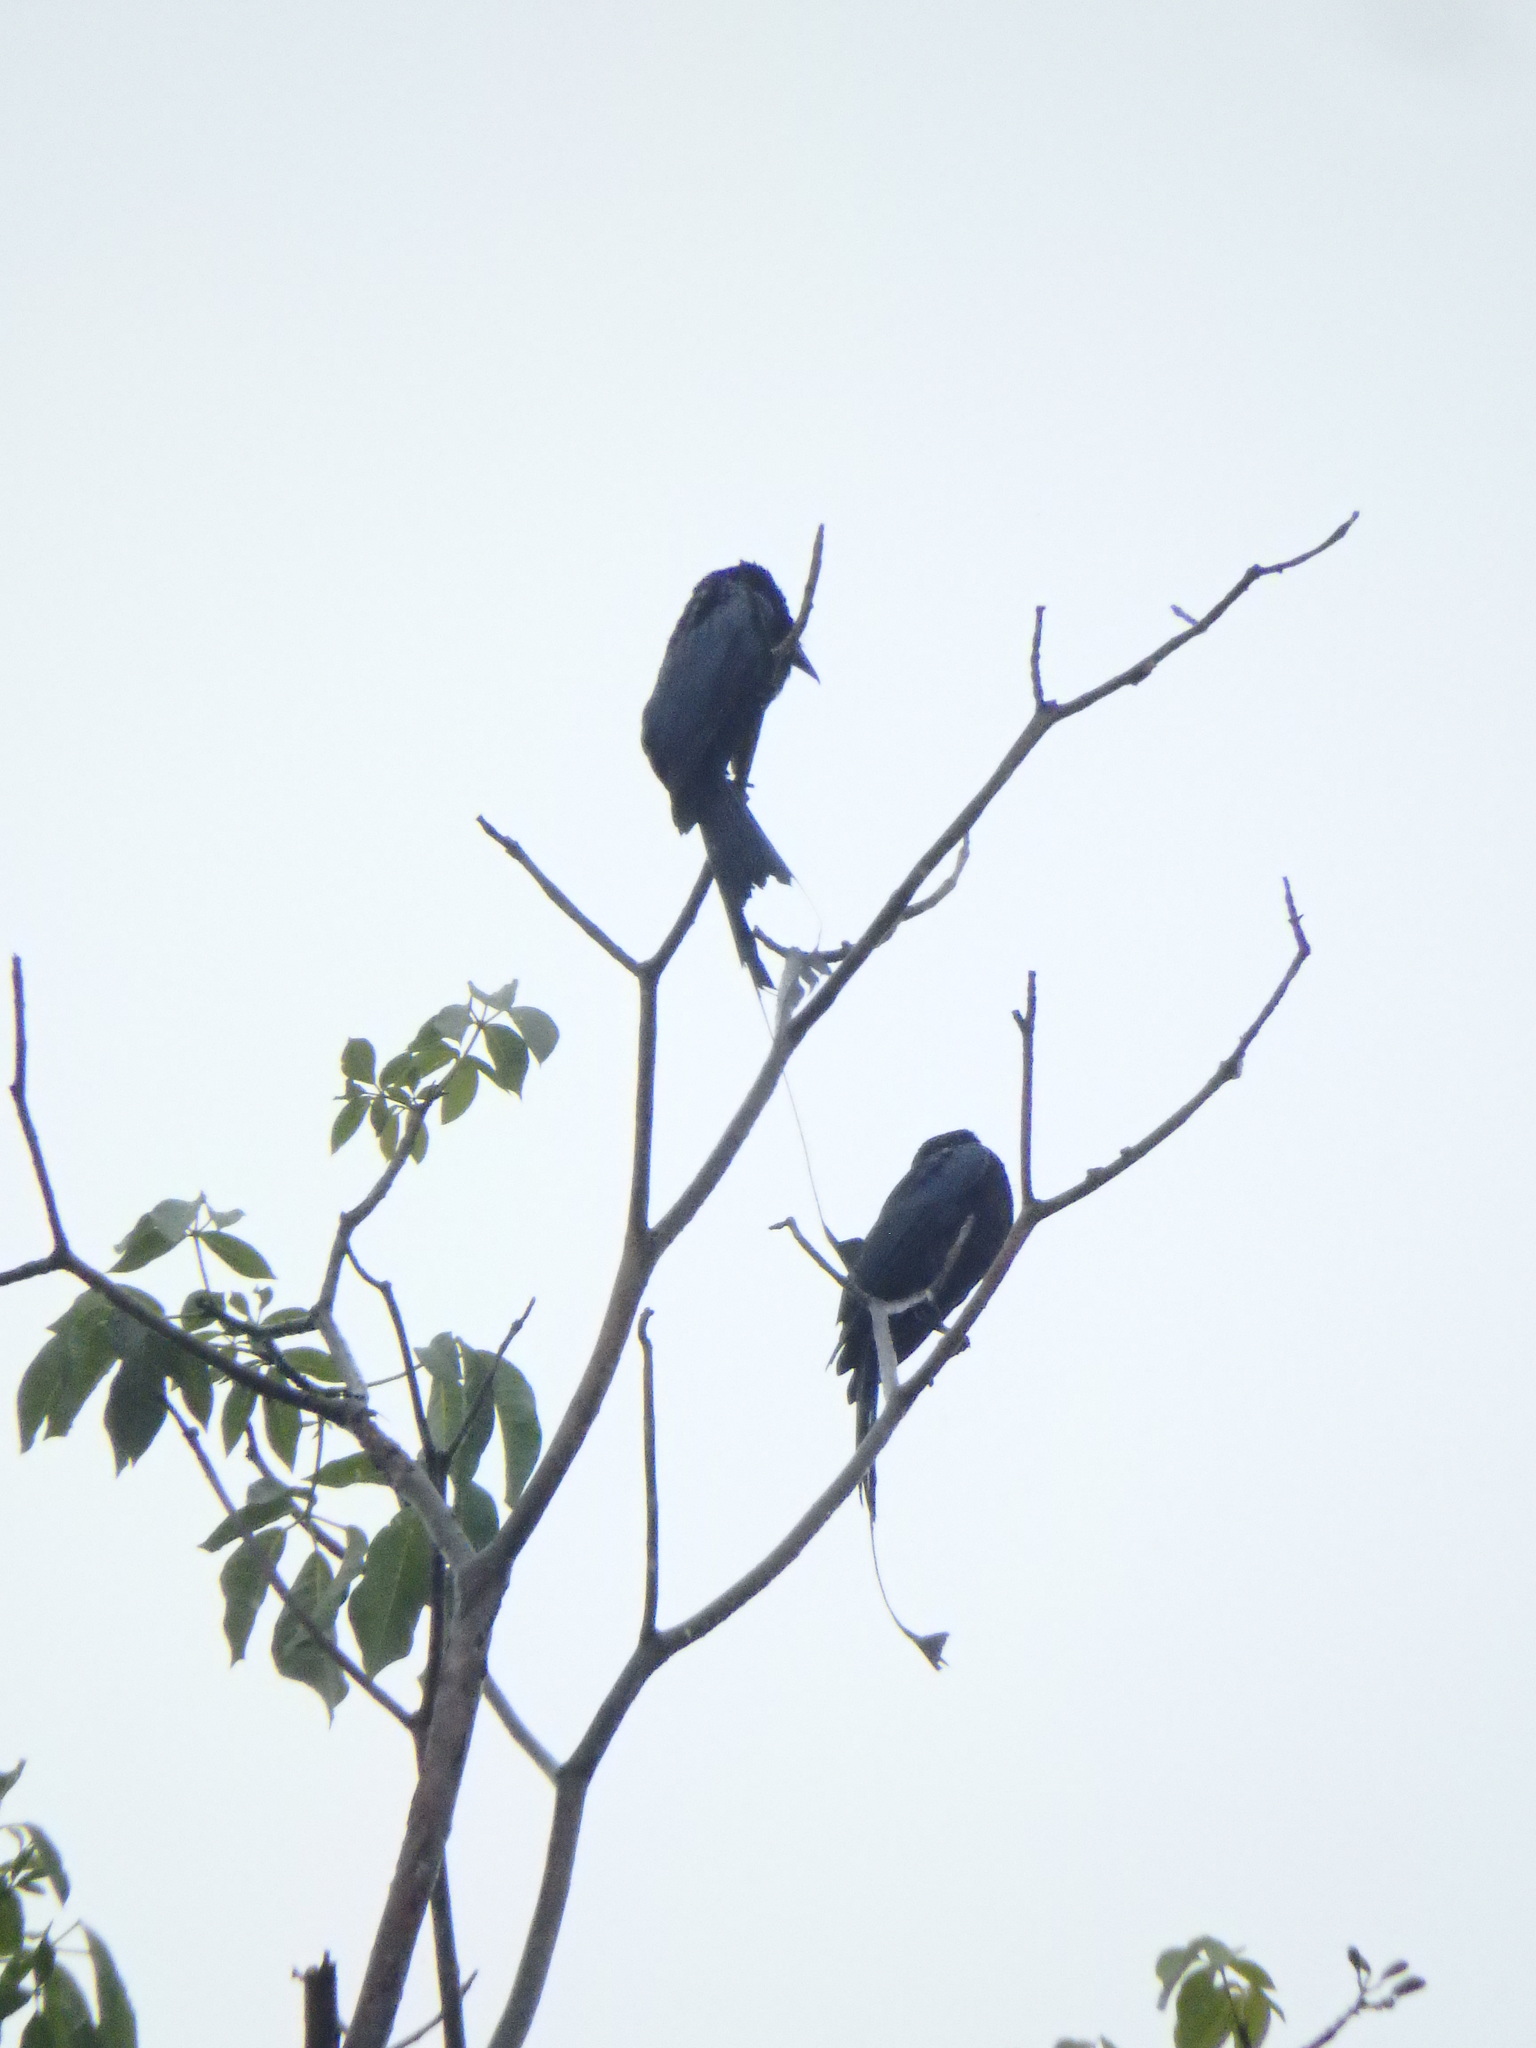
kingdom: Animalia
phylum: Chordata
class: Aves
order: Passeriformes
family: Dicruridae
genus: Dicrurus
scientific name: Dicrurus paradiseus
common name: Greater racket-tailed drongo
